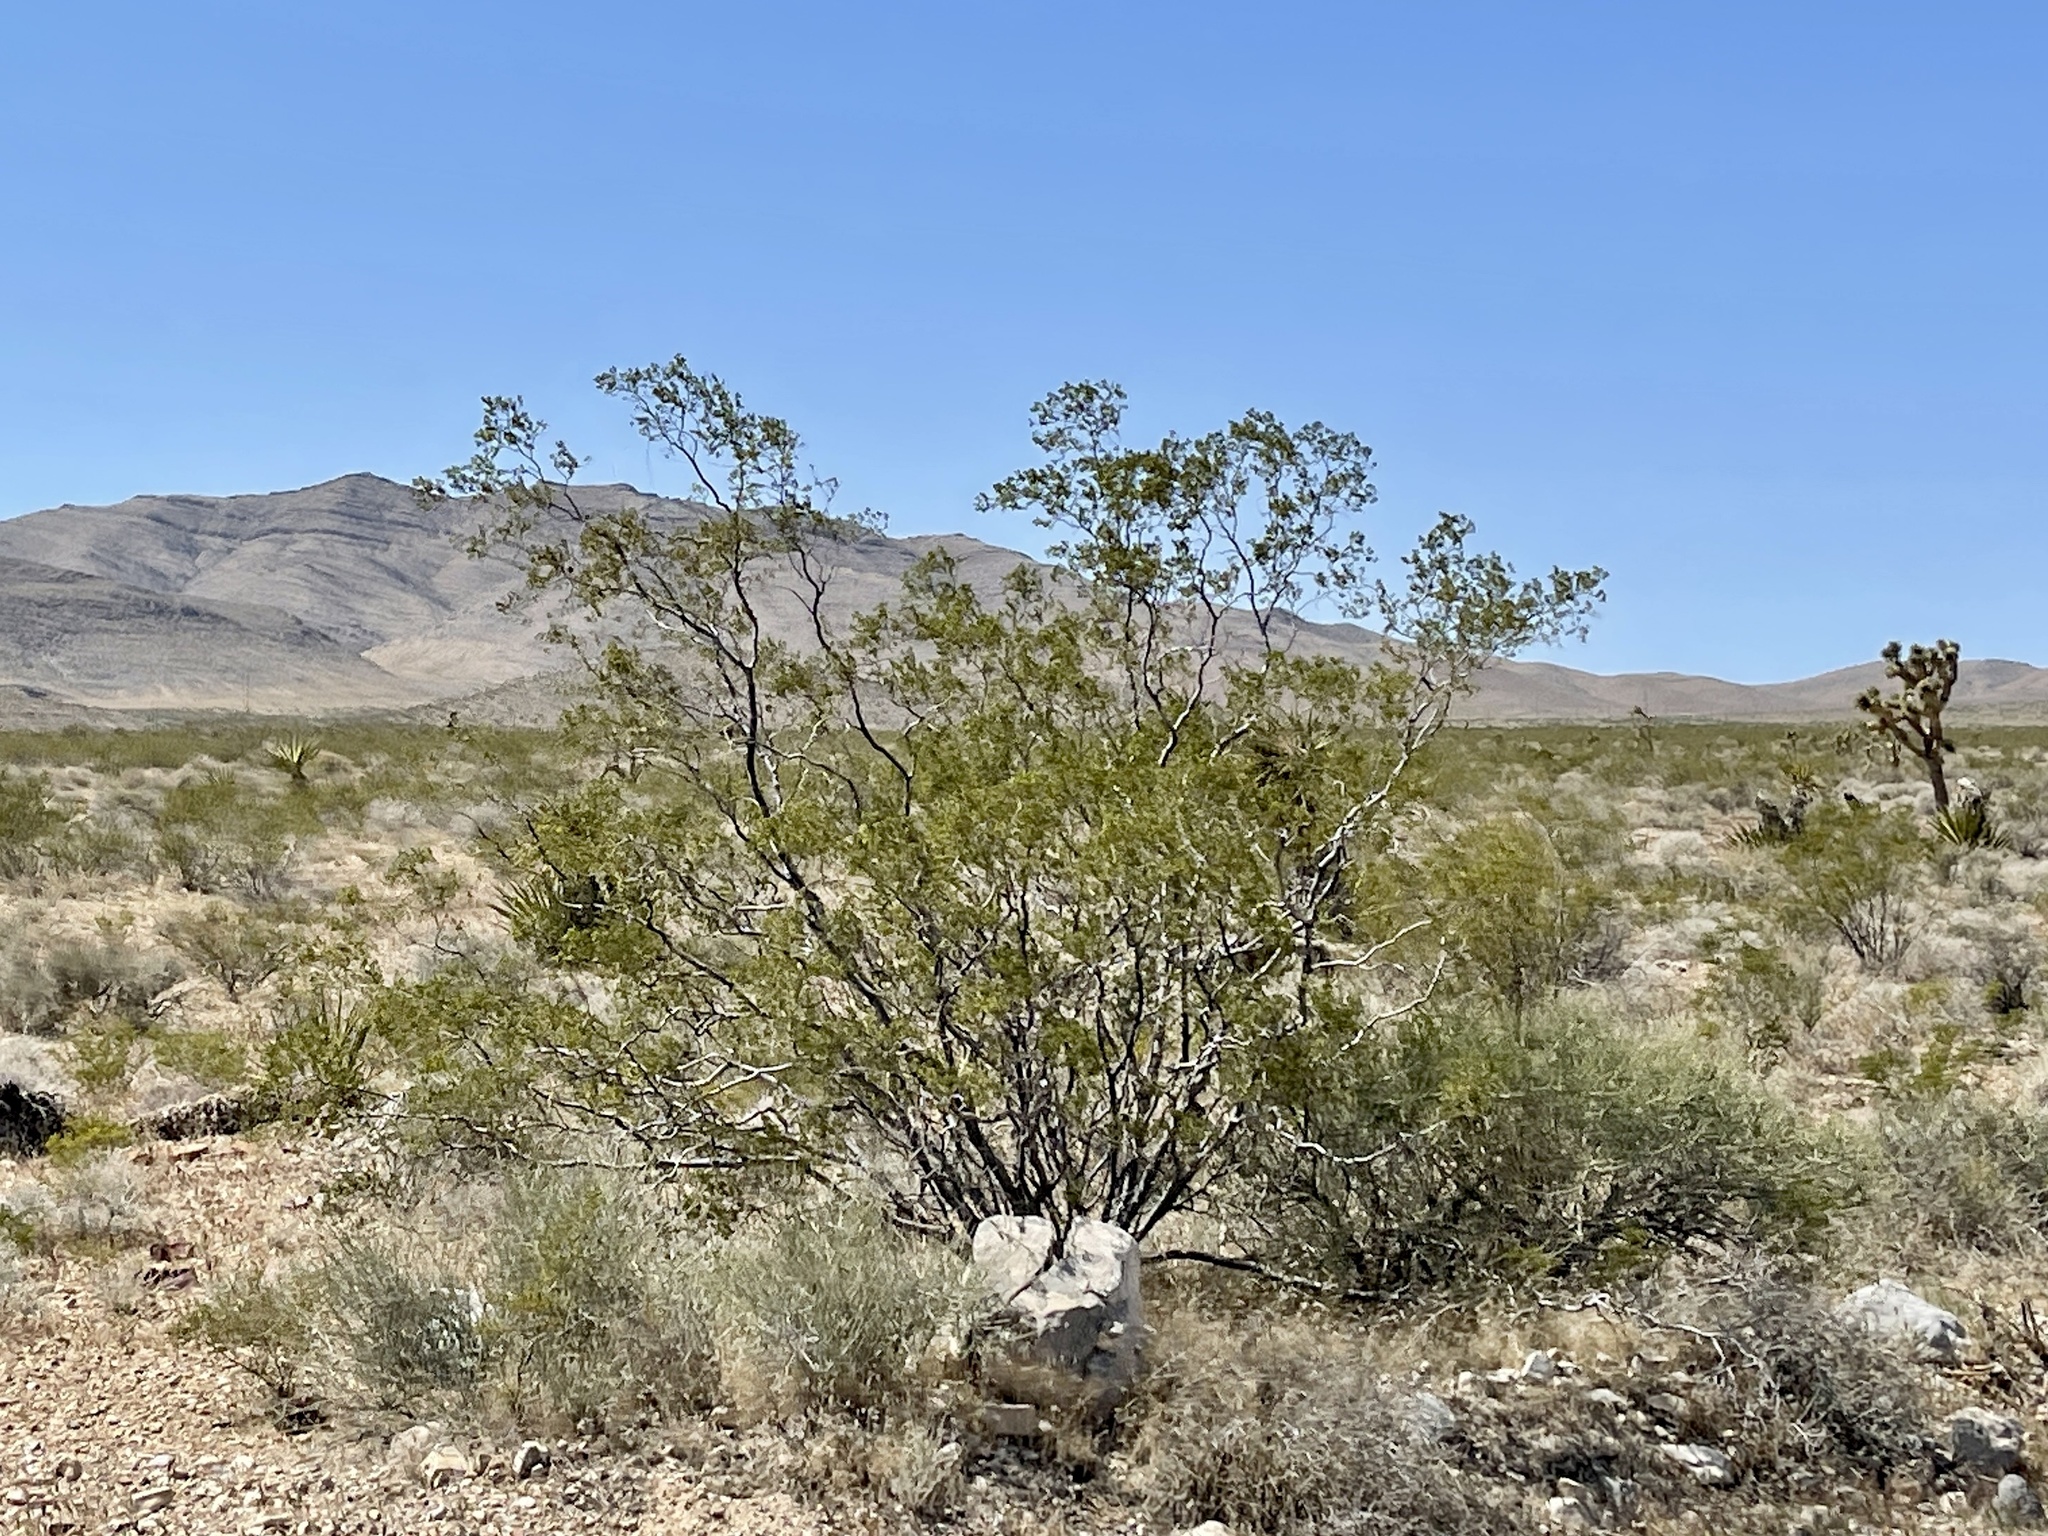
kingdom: Plantae
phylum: Tracheophyta
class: Magnoliopsida
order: Zygophyllales
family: Zygophyllaceae
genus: Larrea
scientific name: Larrea tridentata
